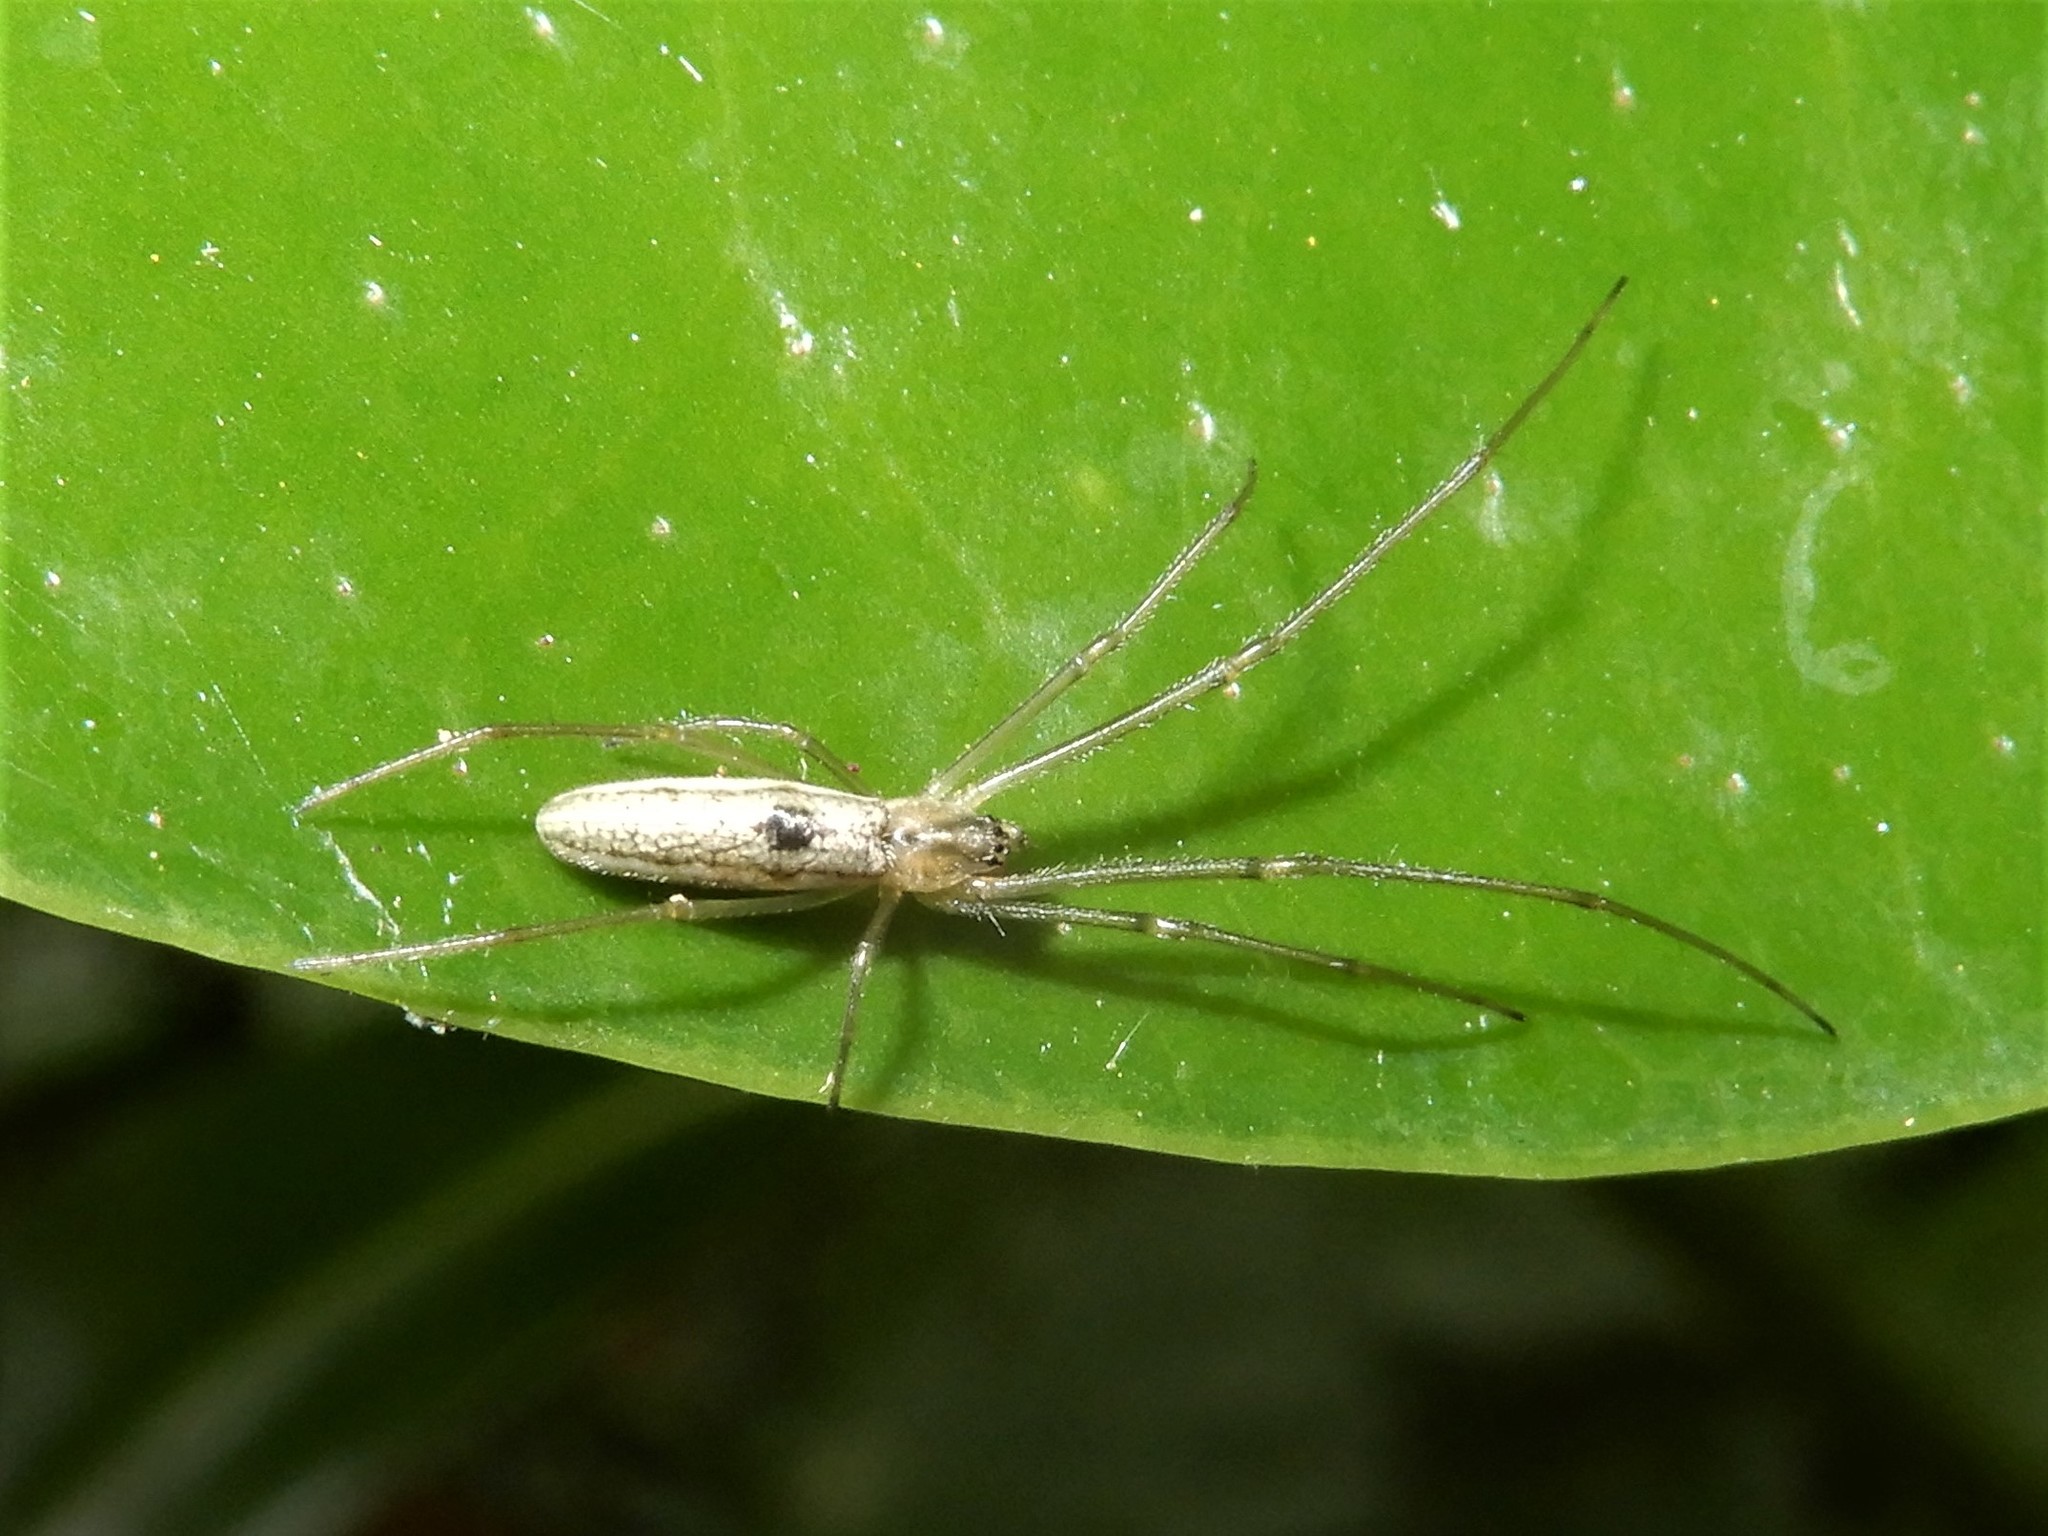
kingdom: Animalia
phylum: Arthropoda
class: Arachnida
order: Araneae
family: Tetragnathidae
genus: Tetragnatha
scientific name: Tetragnatha
